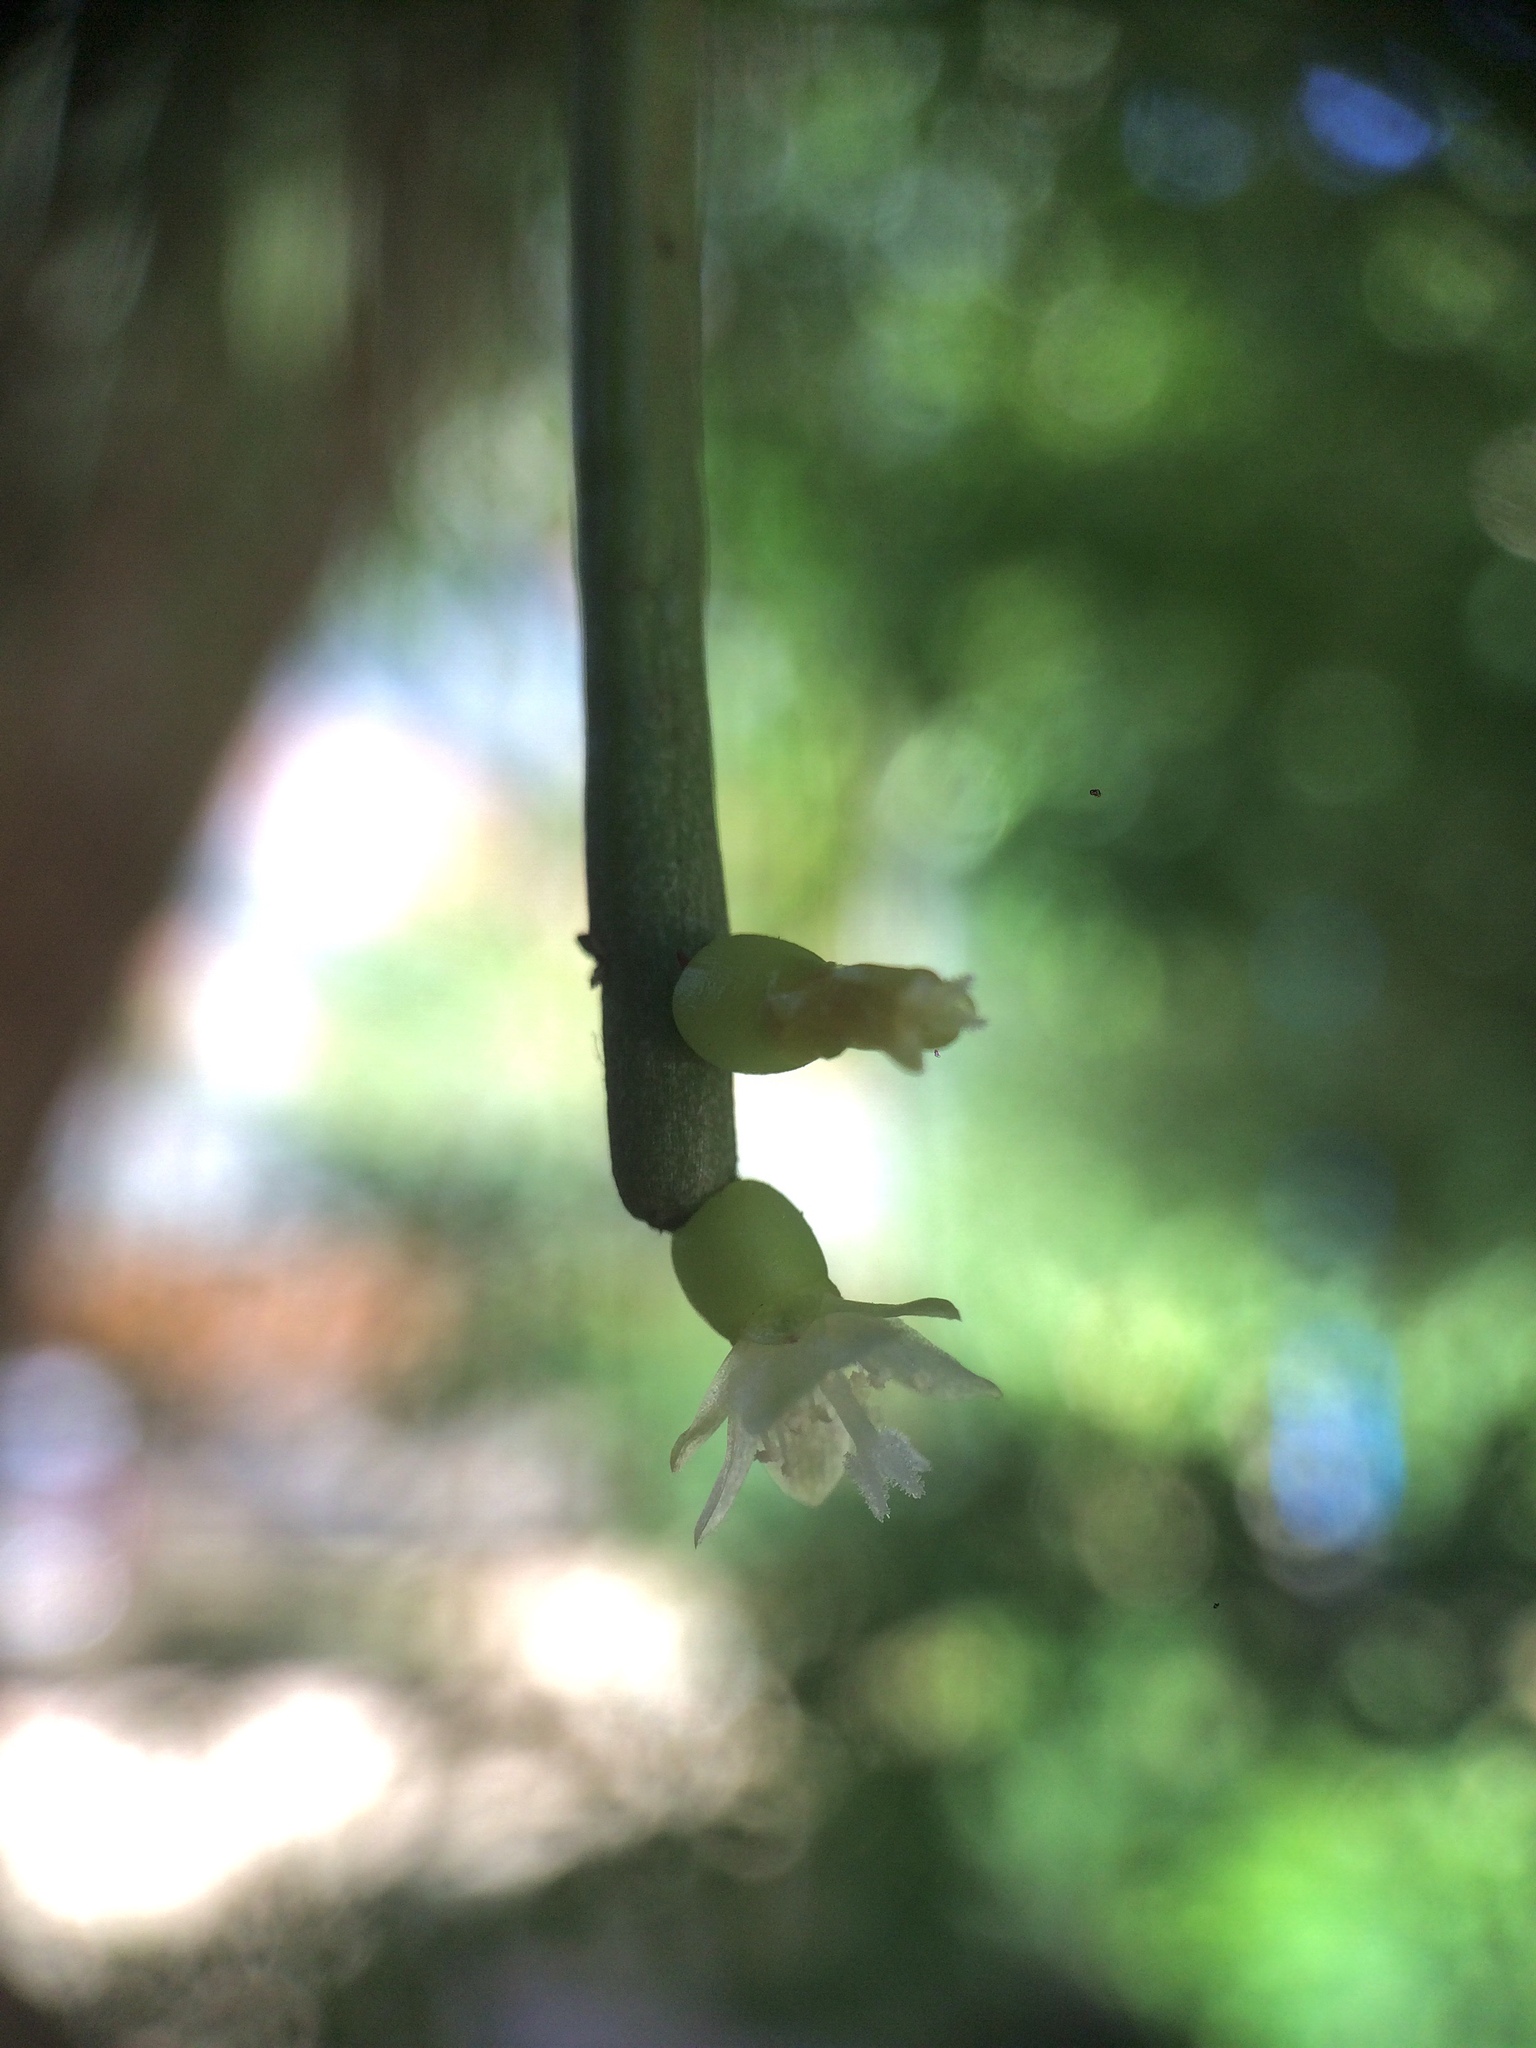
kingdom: Plantae
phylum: Tracheophyta
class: Magnoliopsida
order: Caryophyllales
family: Cactaceae
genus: Rhipsalis
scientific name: Rhipsalis baccifera
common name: Mistletoe cactus
